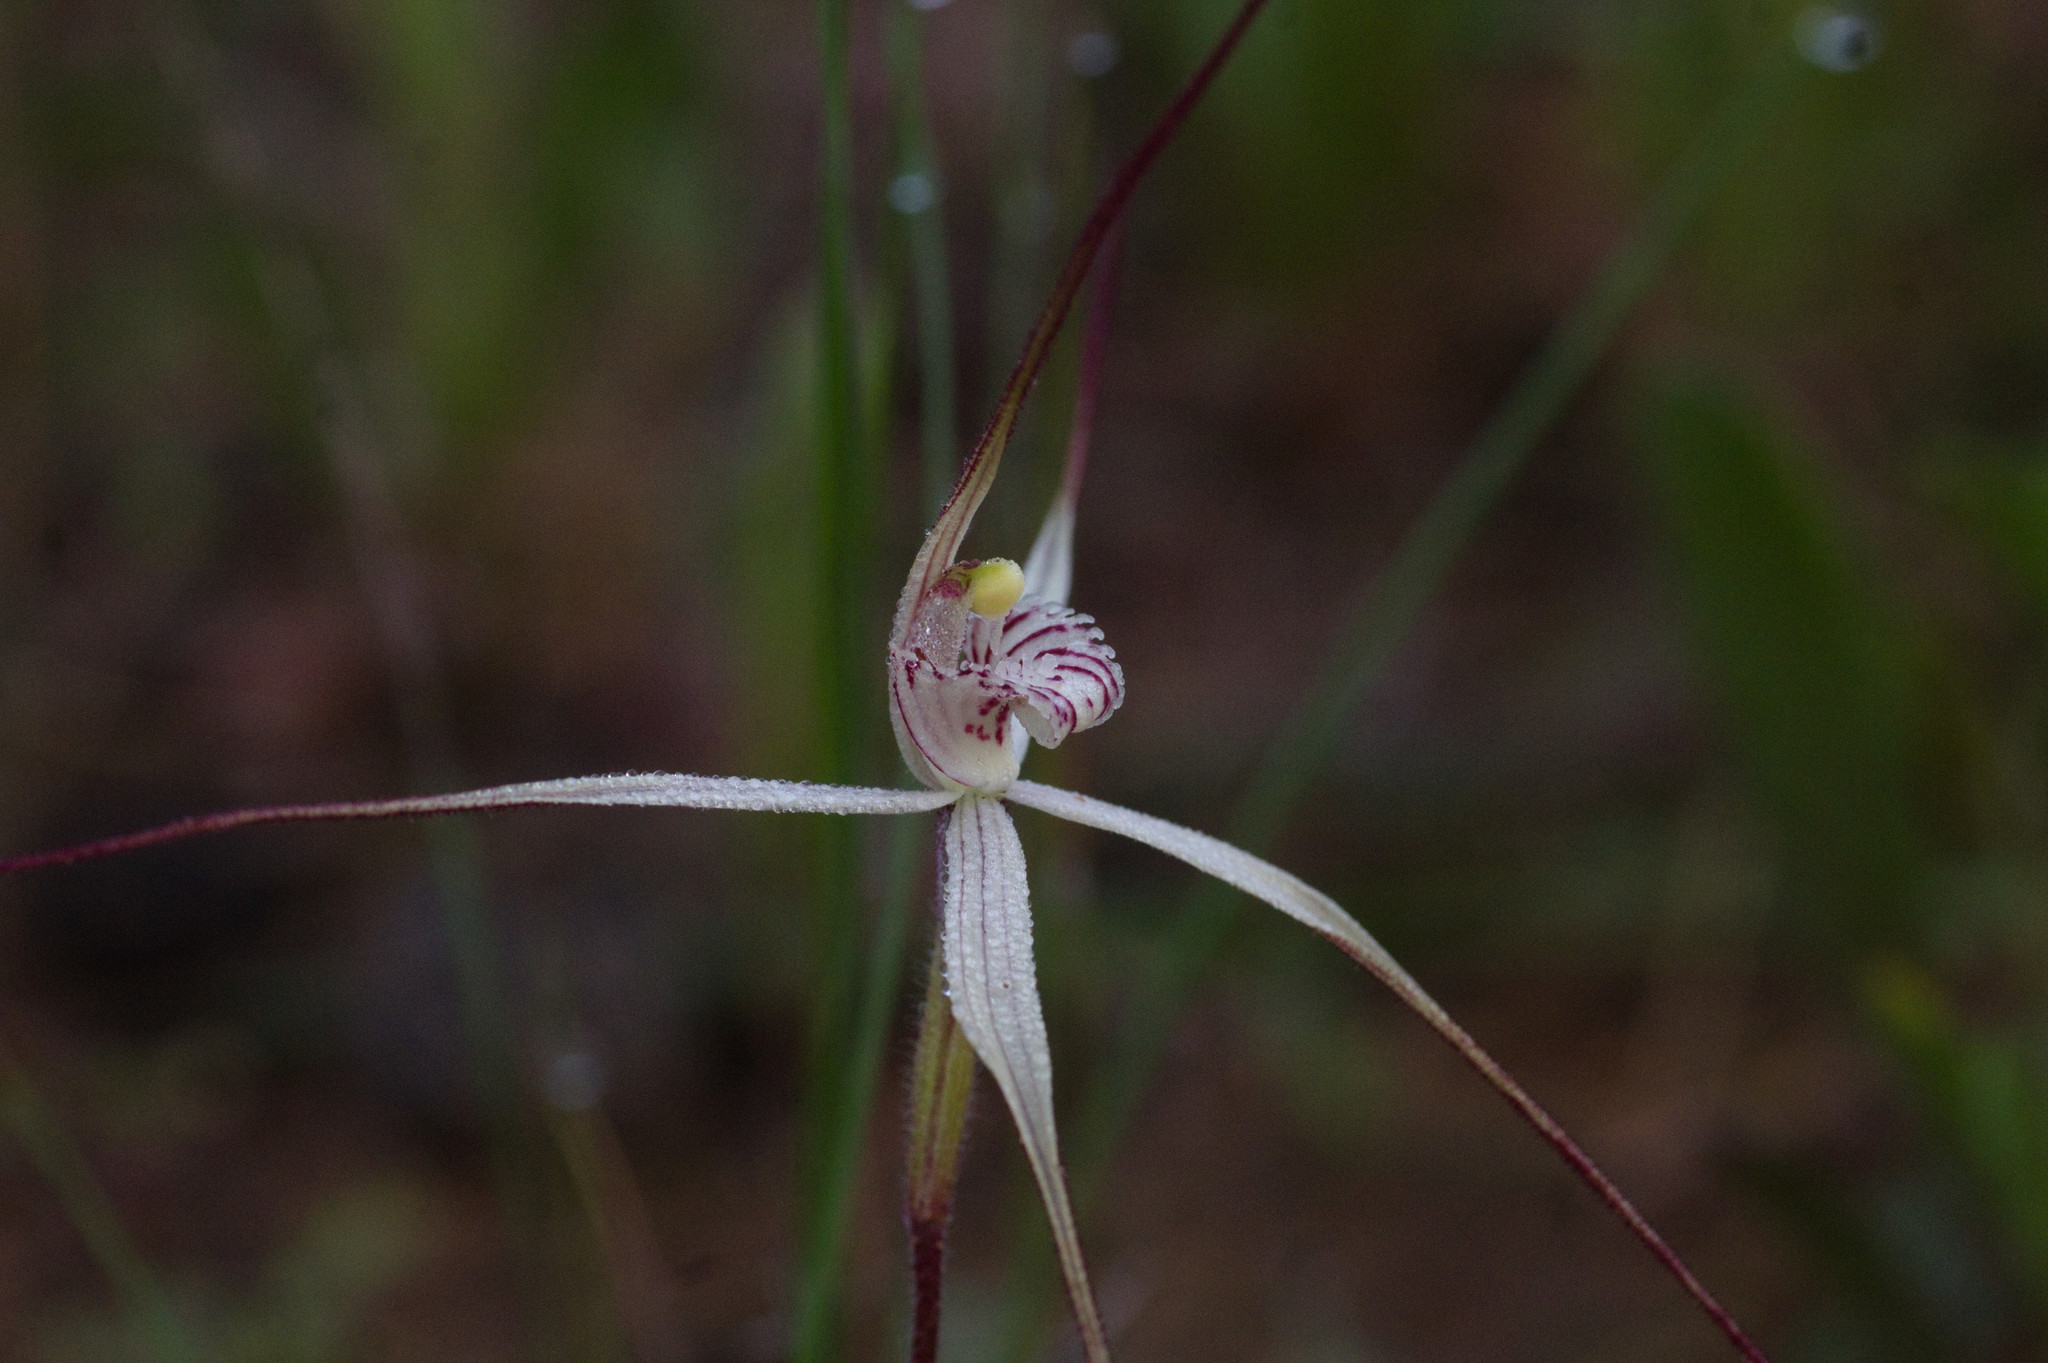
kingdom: Plantae
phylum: Tracheophyta
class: Liliopsida
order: Asparagales
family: Orchidaceae
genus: Caladenia
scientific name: Caladenia incensum
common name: Glistening spider orchid
